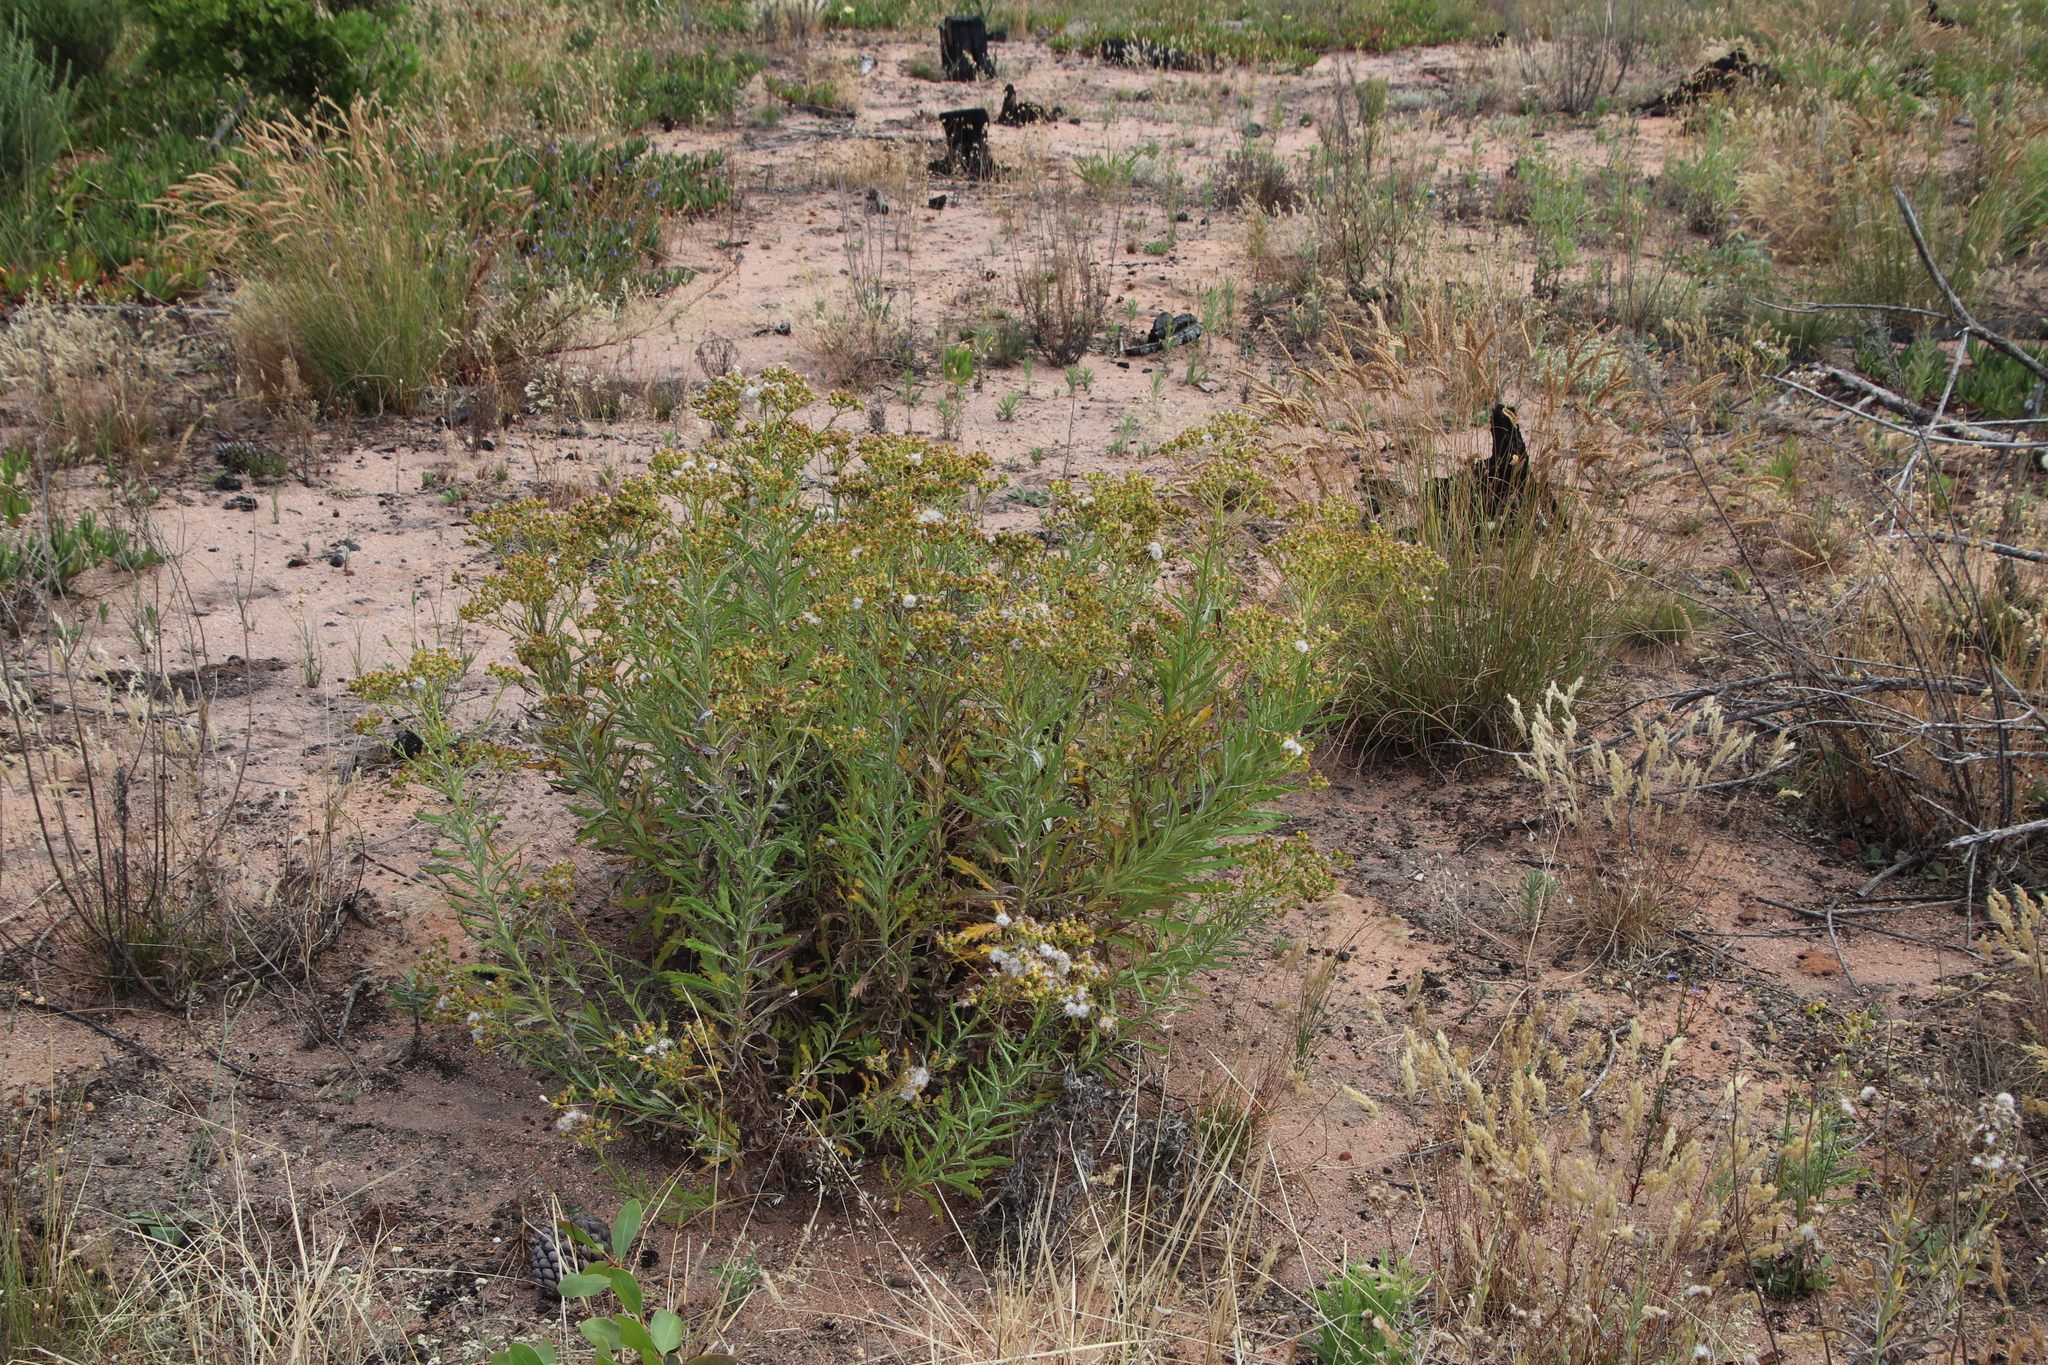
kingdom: Plantae
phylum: Tracheophyta
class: Magnoliopsida
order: Asterales
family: Asteraceae
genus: Senecio
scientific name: Senecio pterophorus
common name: Shoddy ragwort
